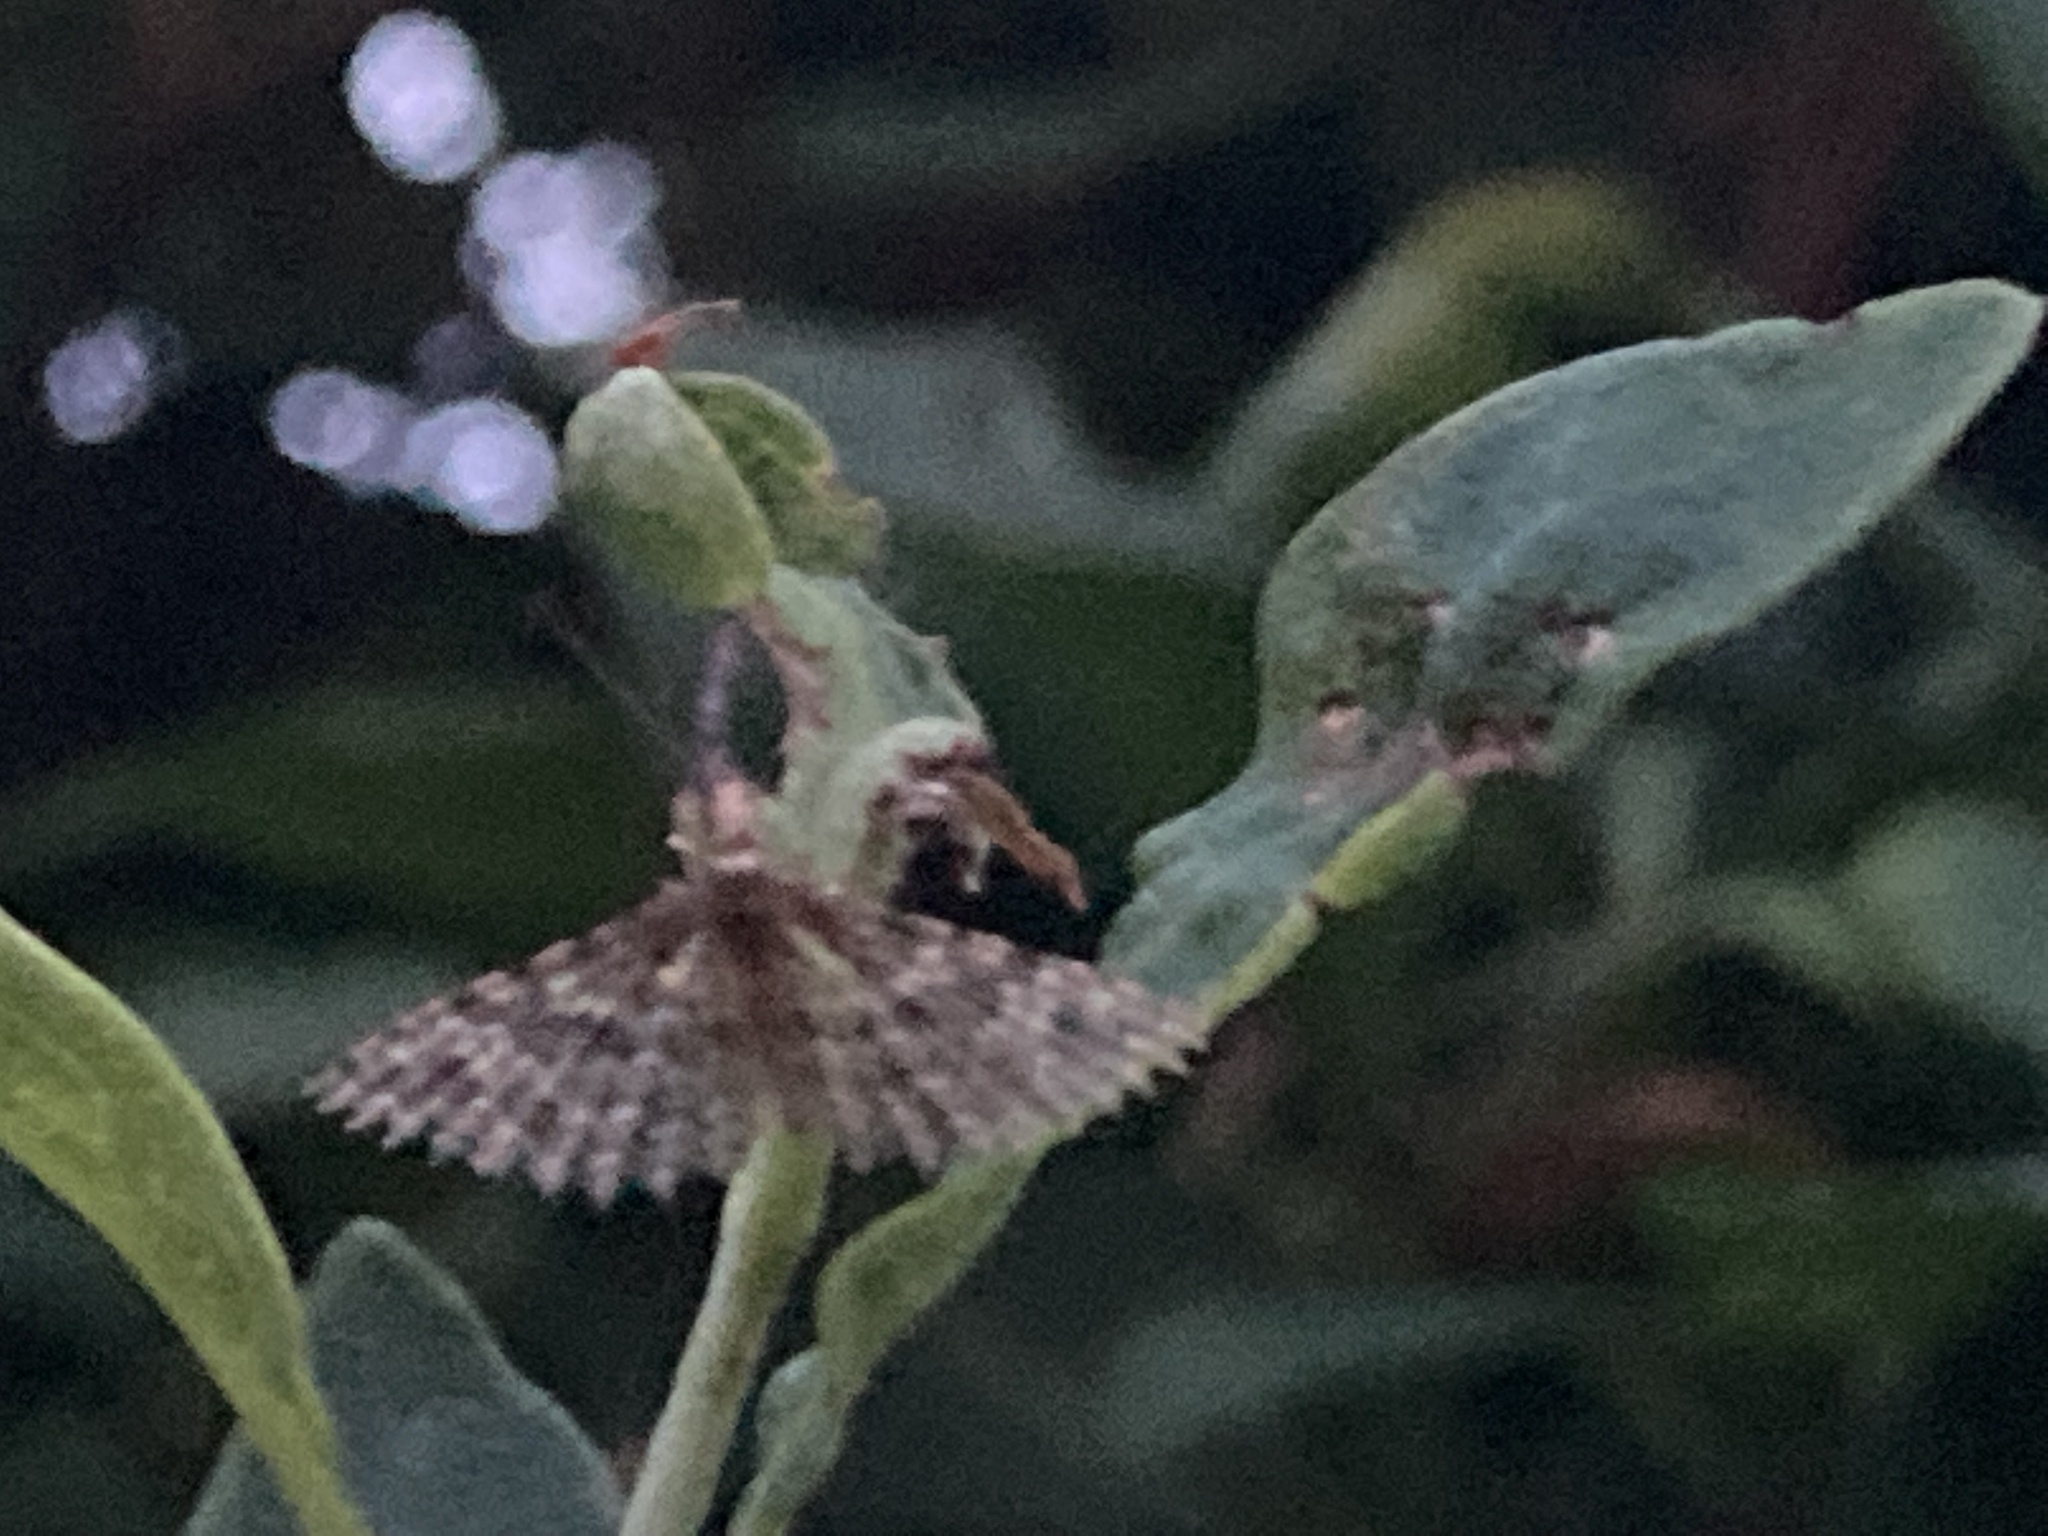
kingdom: Animalia
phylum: Arthropoda
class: Insecta
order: Lepidoptera
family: Alucitidae
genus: Alucita
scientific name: Alucita hexadactyla
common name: Twenty-plume moth
